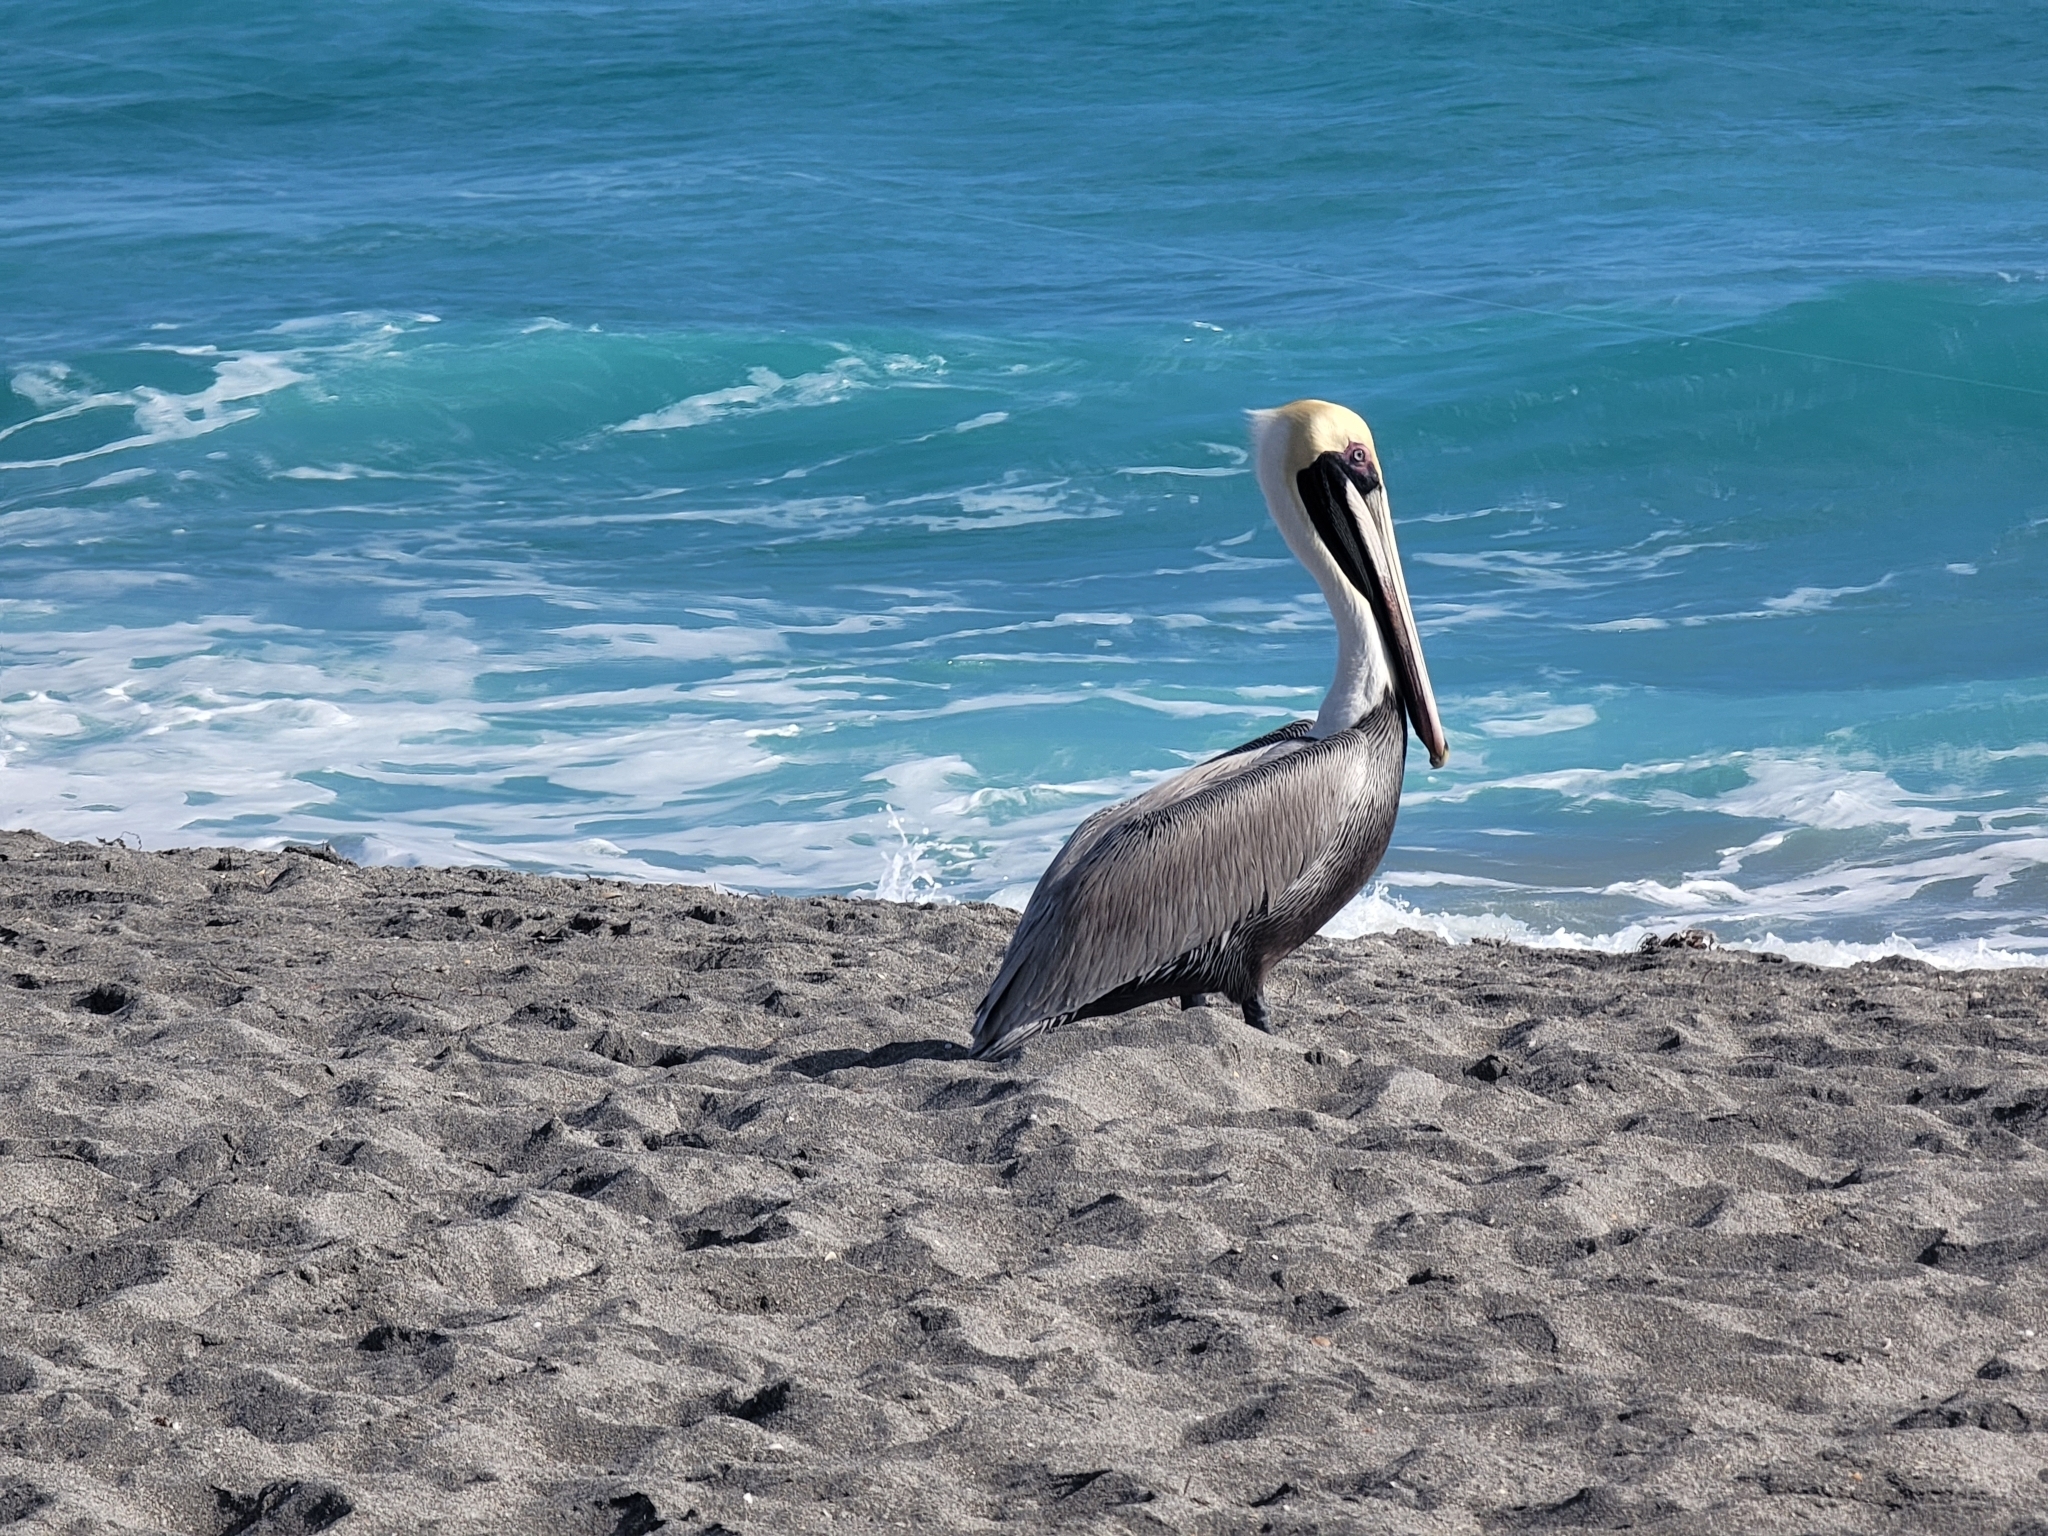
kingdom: Animalia
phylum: Chordata
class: Aves
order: Pelecaniformes
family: Pelecanidae
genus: Pelecanus
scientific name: Pelecanus occidentalis
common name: Brown pelican
